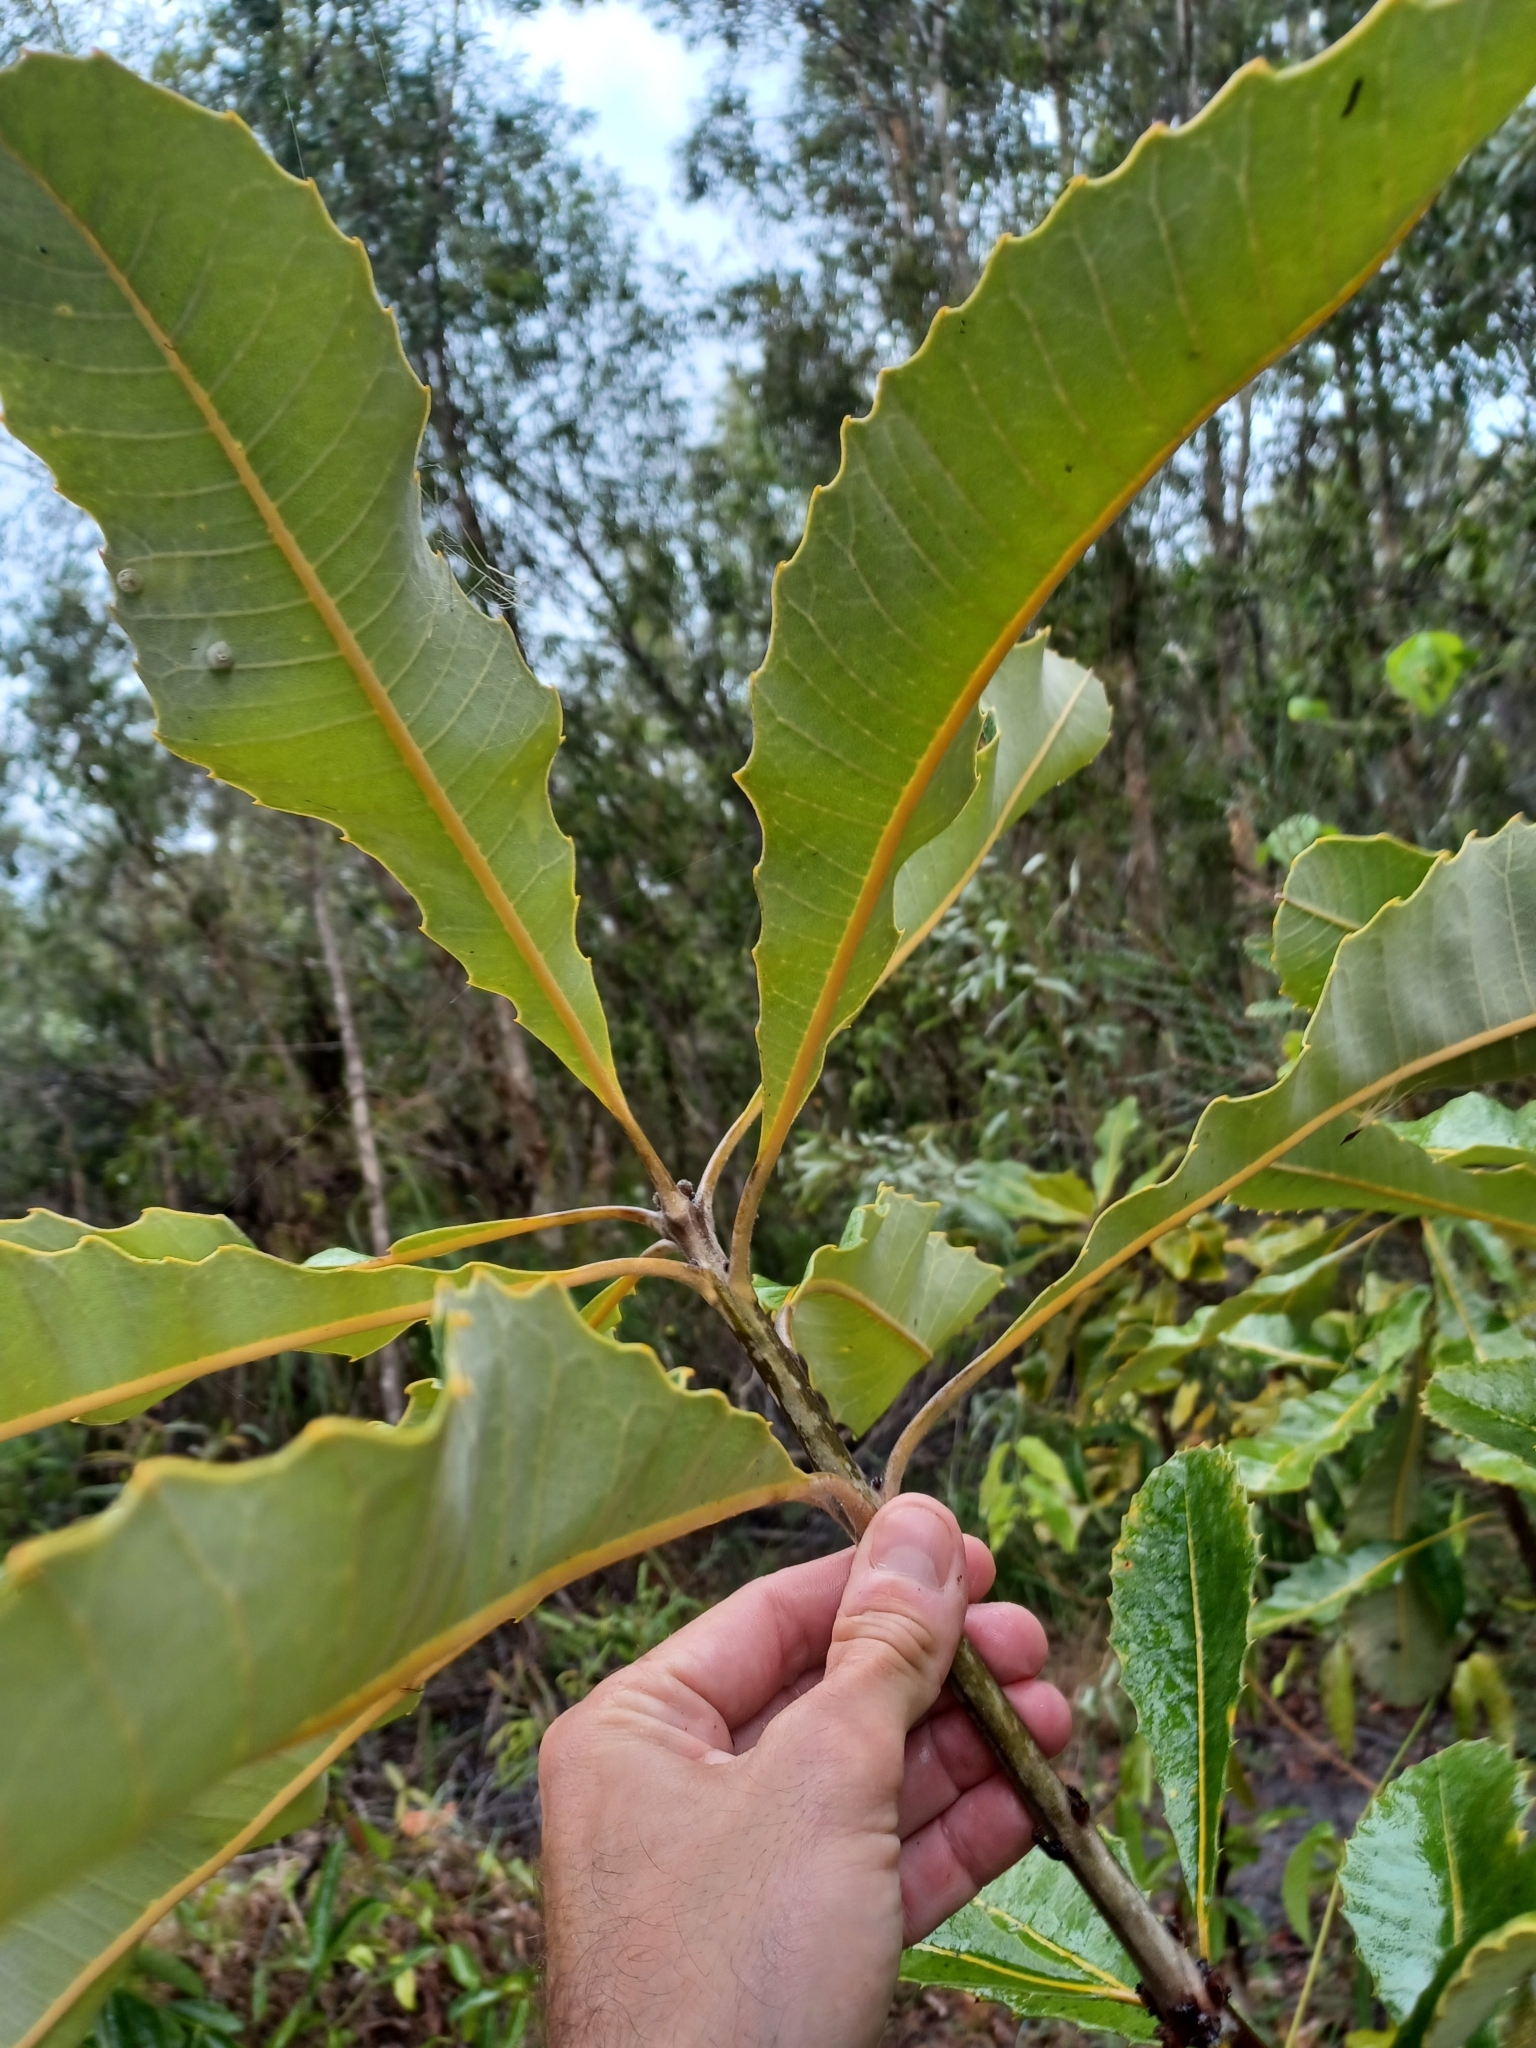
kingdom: Plantae
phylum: Tracheophyta
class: Magnoliopsida
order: Proteales
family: Proteaceae
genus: Banksia
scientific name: Banksia robur
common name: Broadleaf banksia
